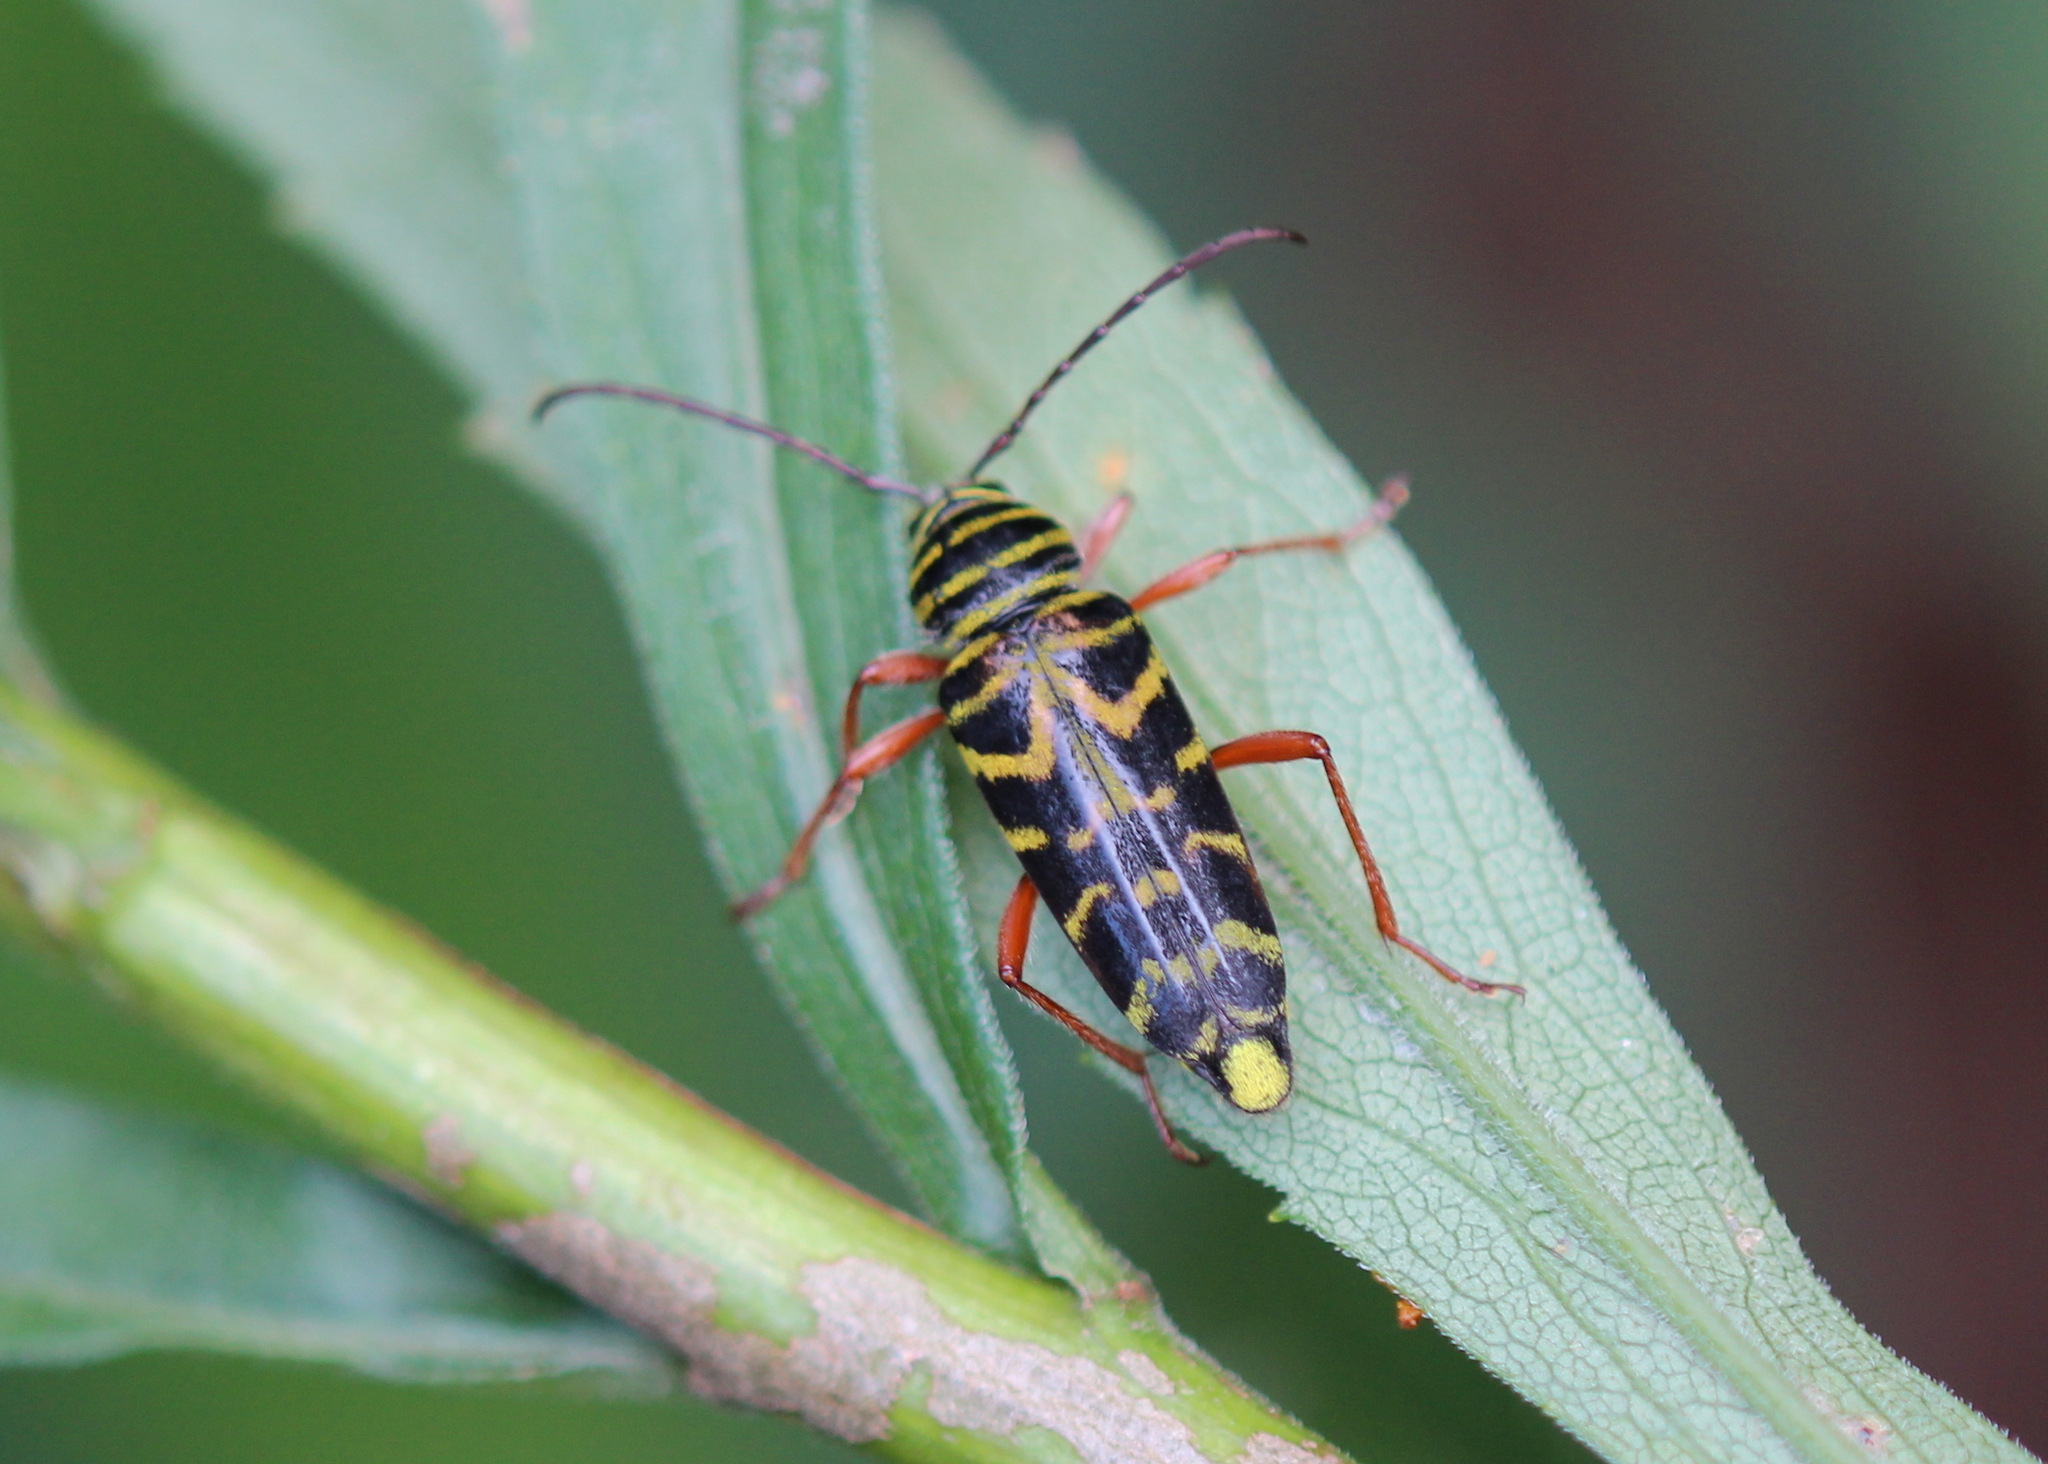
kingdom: Animalia
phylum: Arthropoda
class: Insecta
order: Coleoptera
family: Cerambycidae
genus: Megacyllene
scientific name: Megacyllene robiniae
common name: Locust borer
